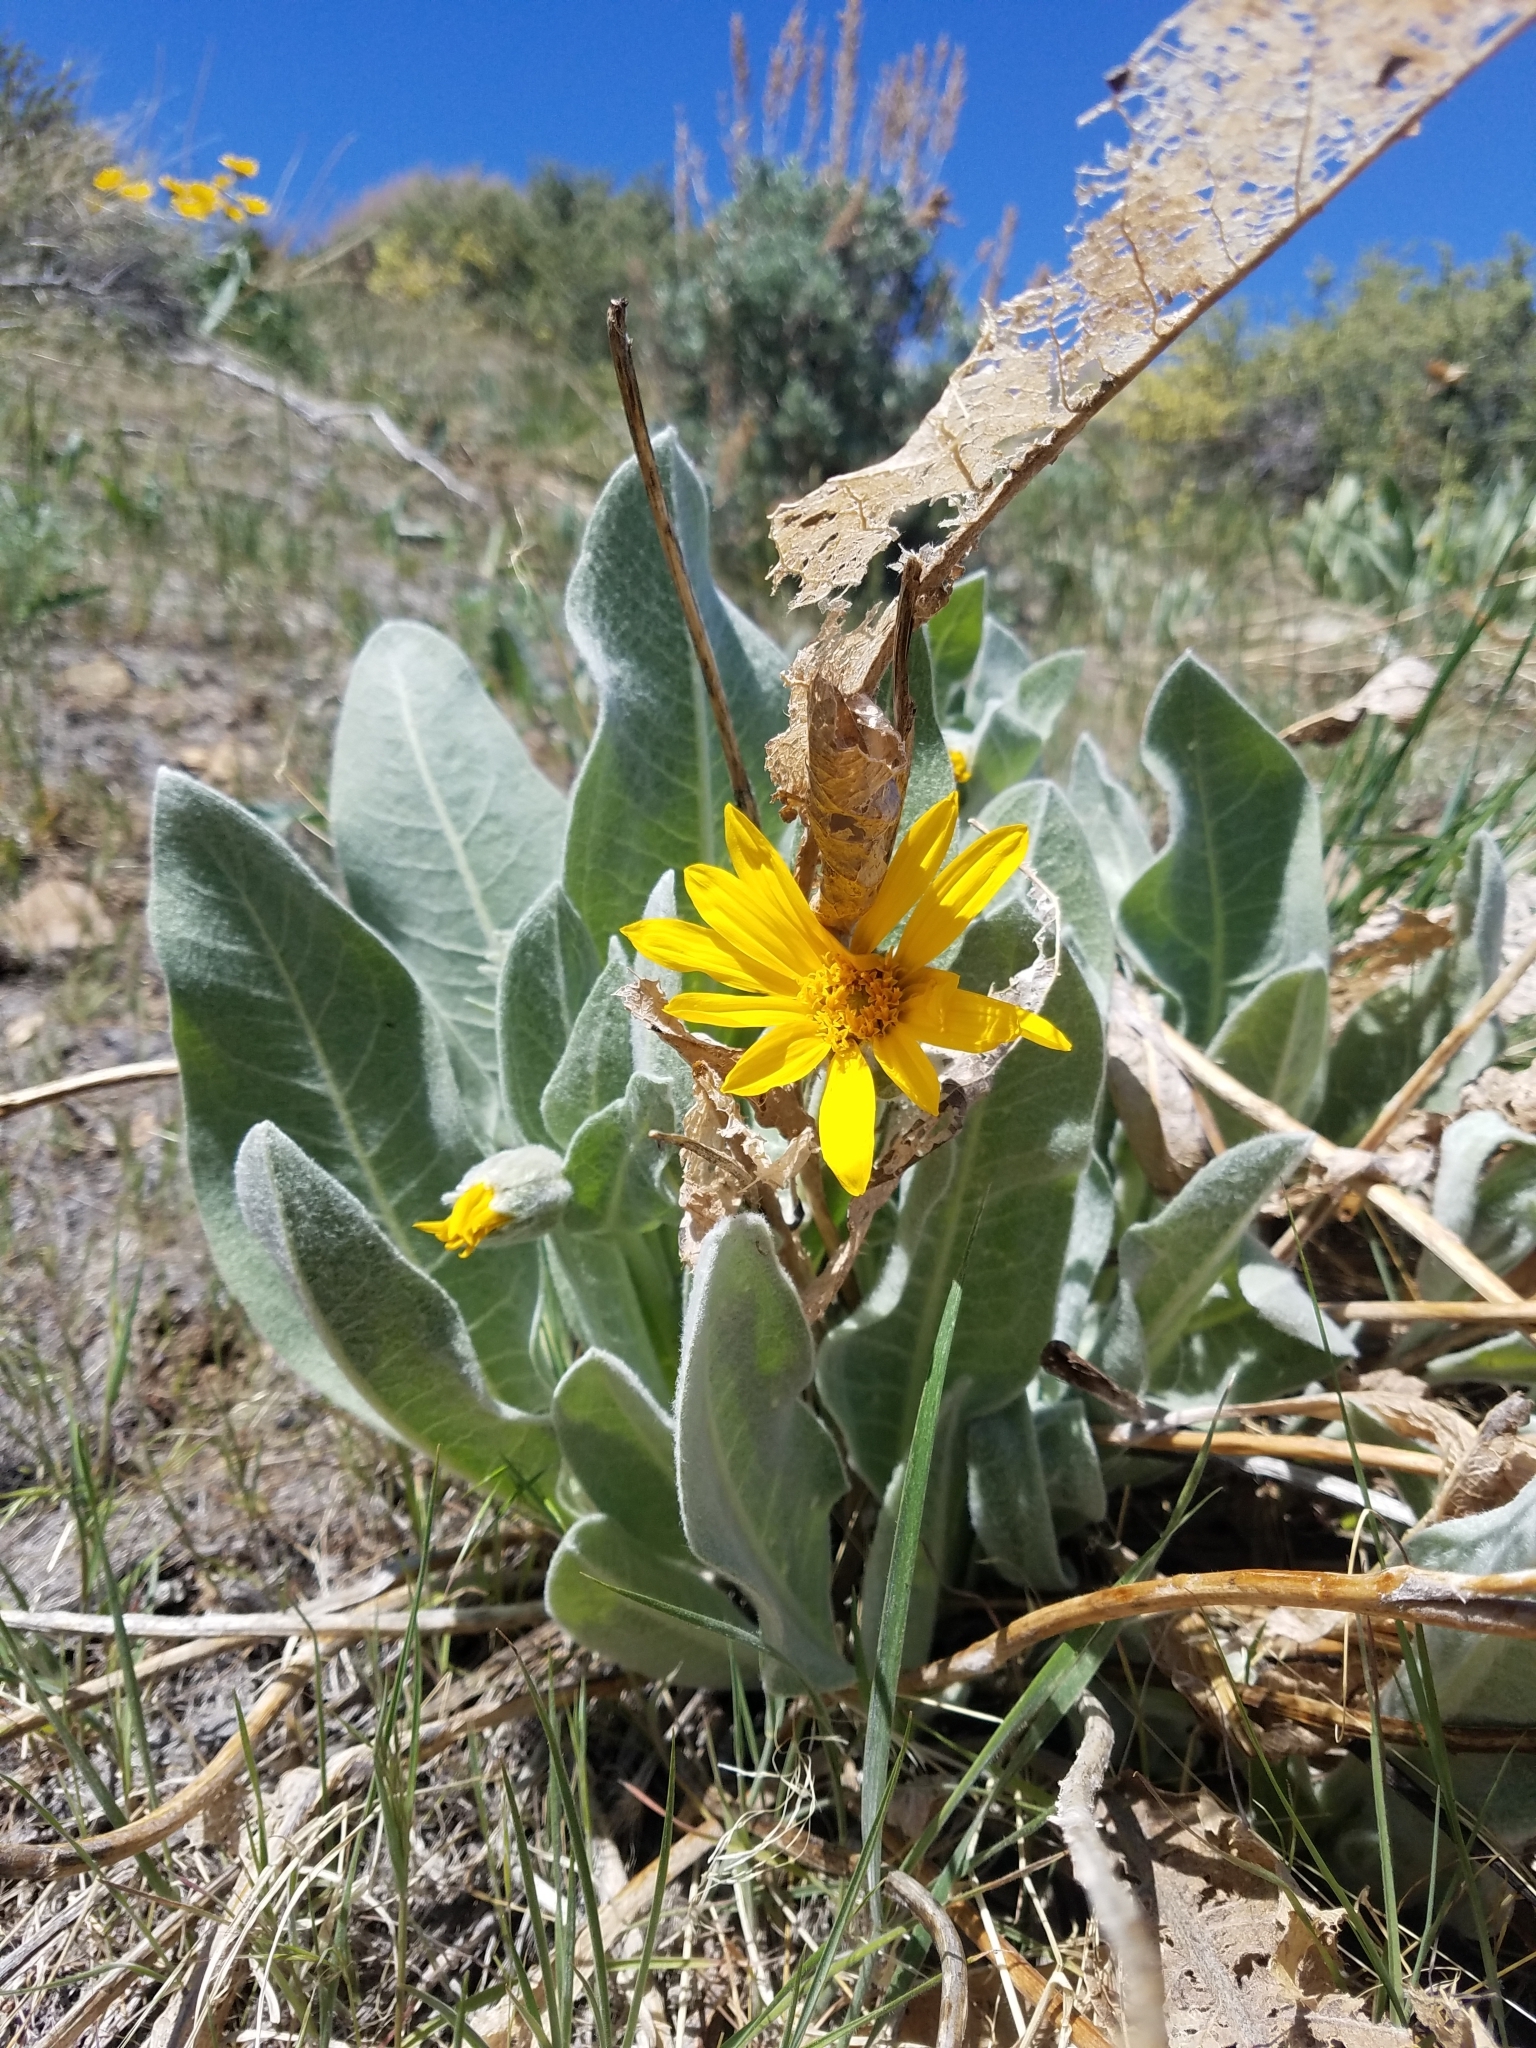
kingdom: Plantae
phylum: Tracheophyta
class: Magnoliopsida
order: Asterales
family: Asteraceae
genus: Wyethia
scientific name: Wyethia mollis
